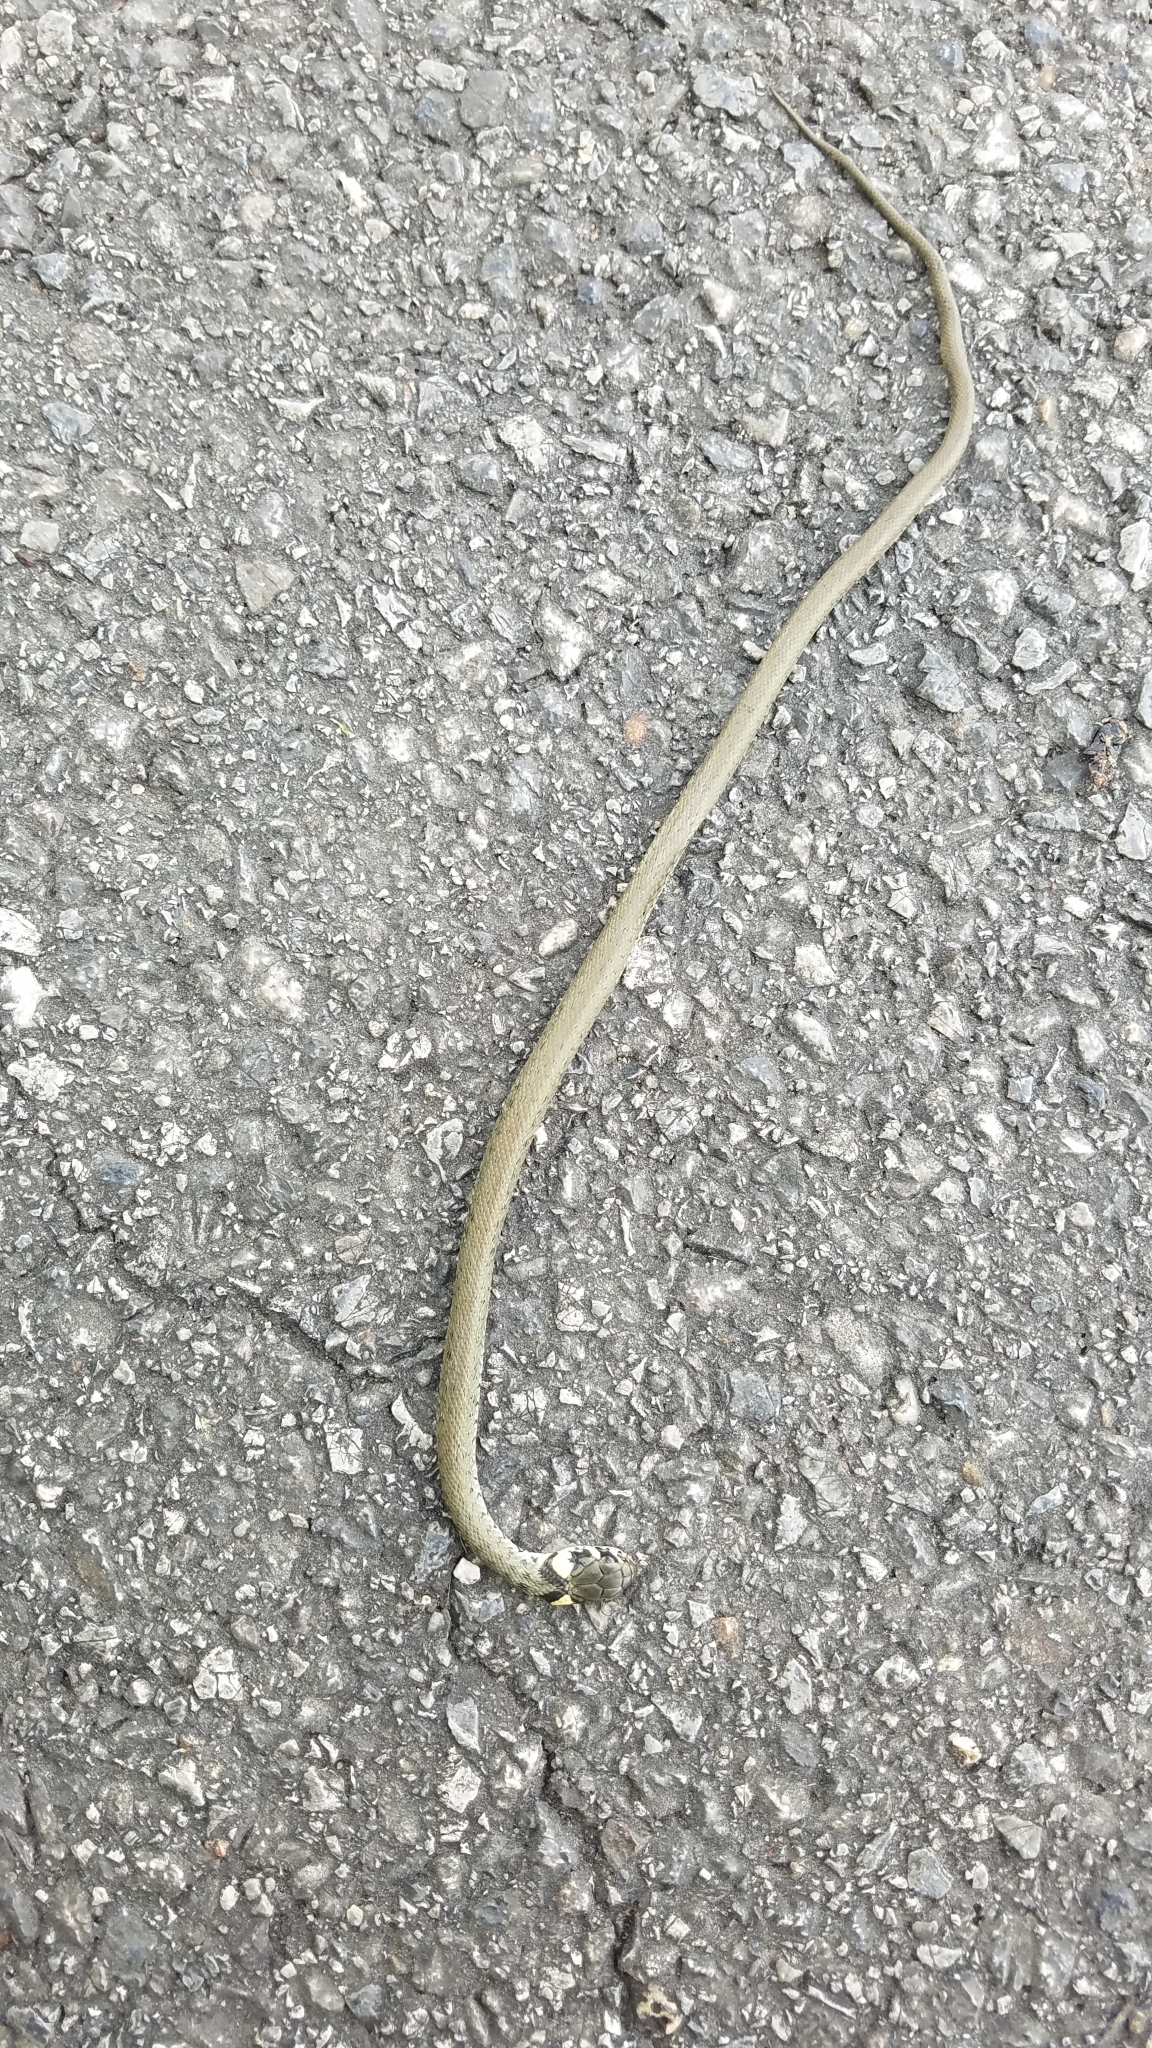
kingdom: Animalia
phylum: Chordata
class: Squamata
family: Colubridae
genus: Natrix
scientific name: Natrix natrix
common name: Grass snake
